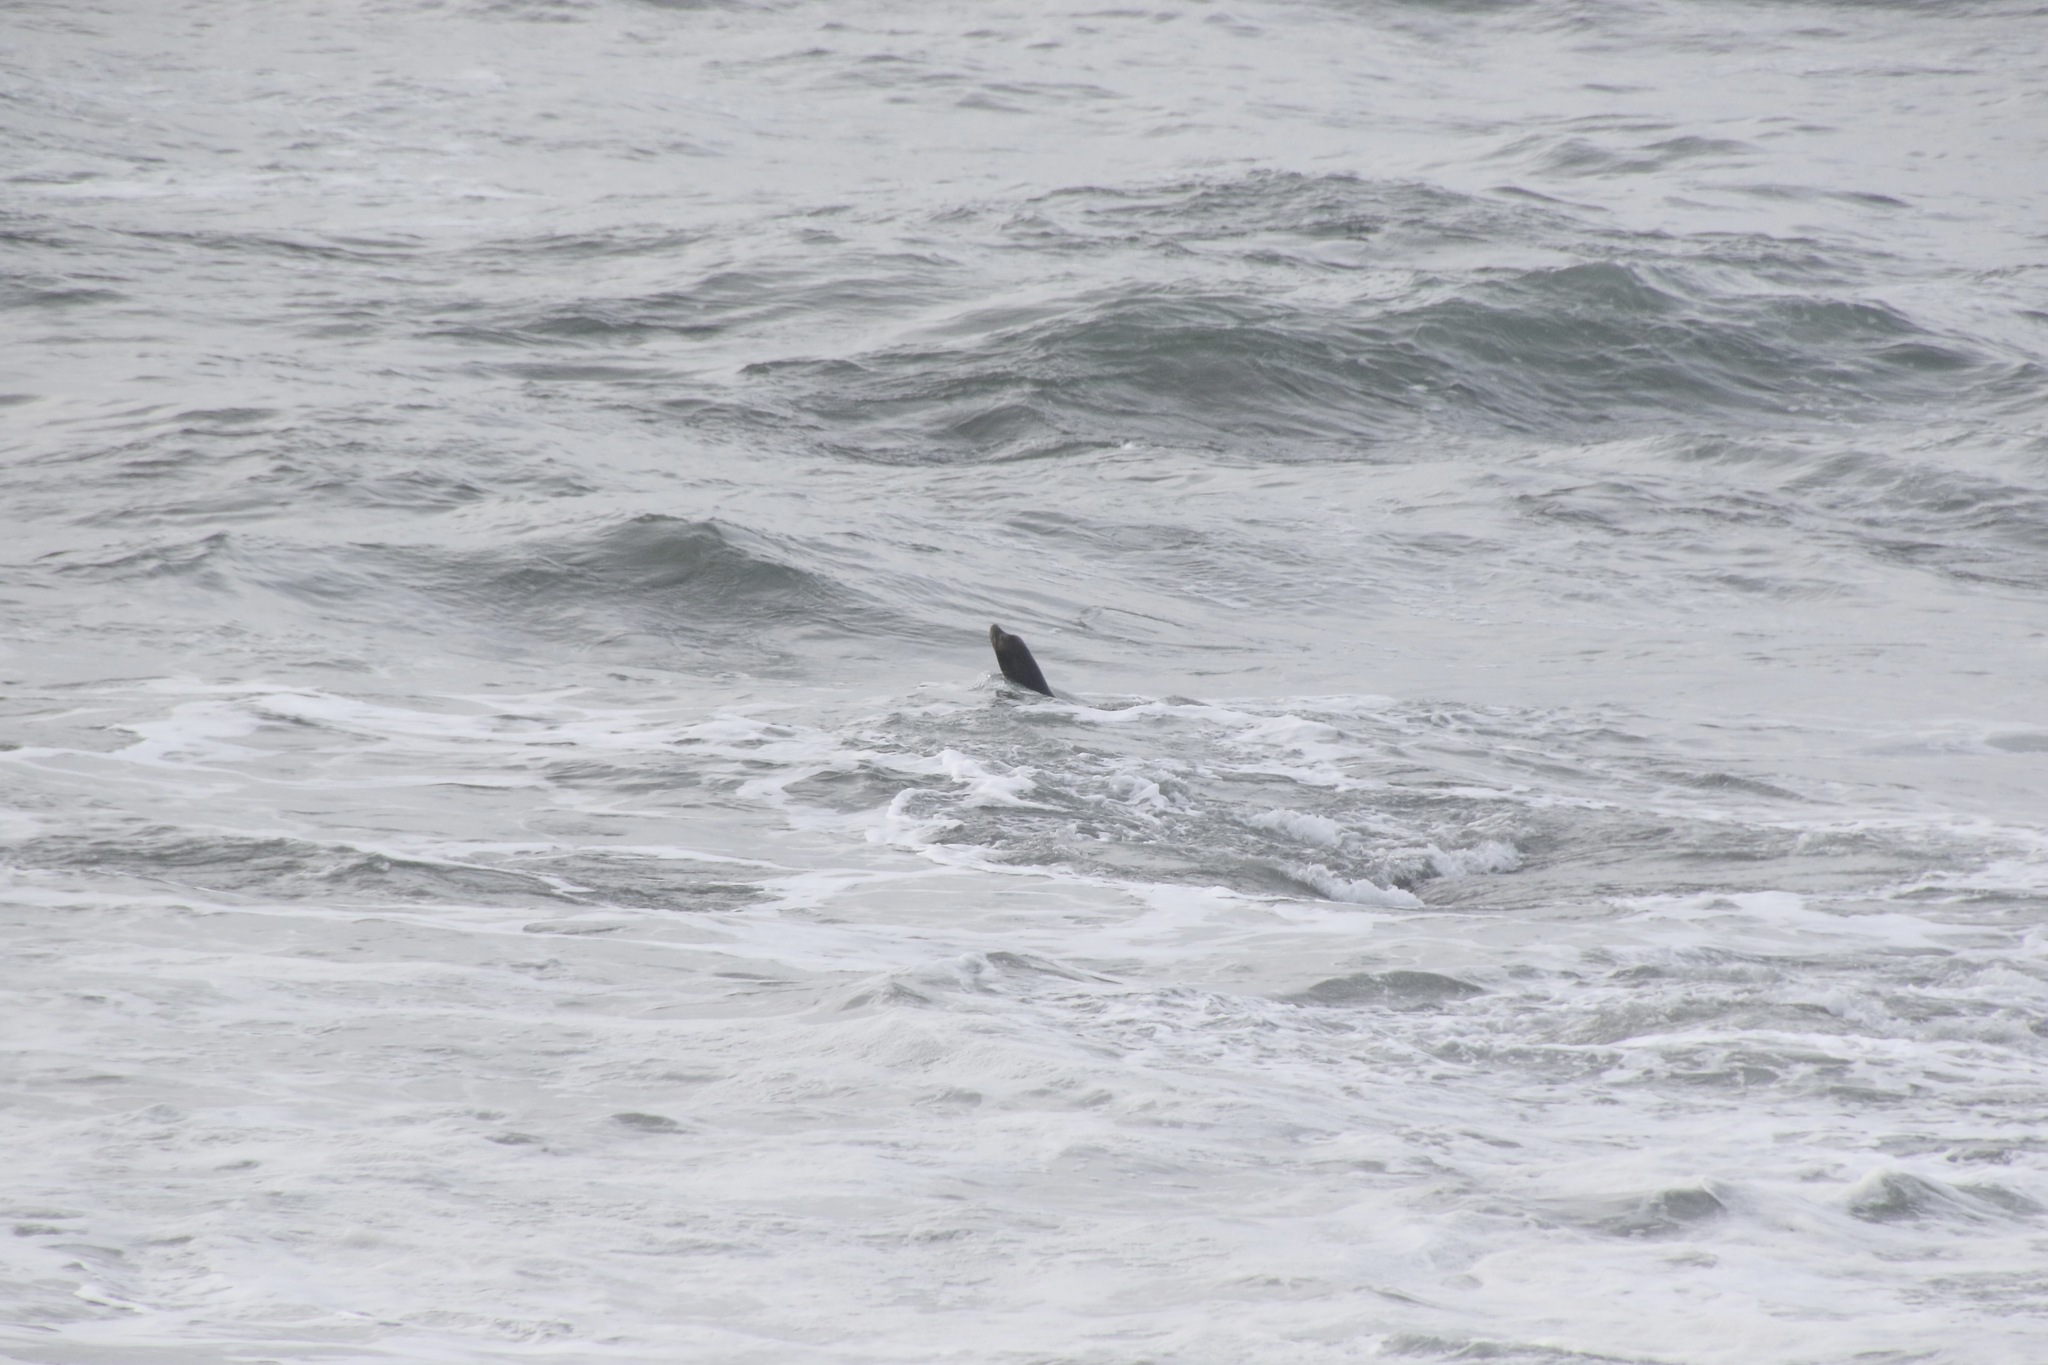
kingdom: Animalia
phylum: Chordata
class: Mammalia
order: Carnivora
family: Otariidae
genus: Zalophus
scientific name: Zalophus californianus
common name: California sea lion
